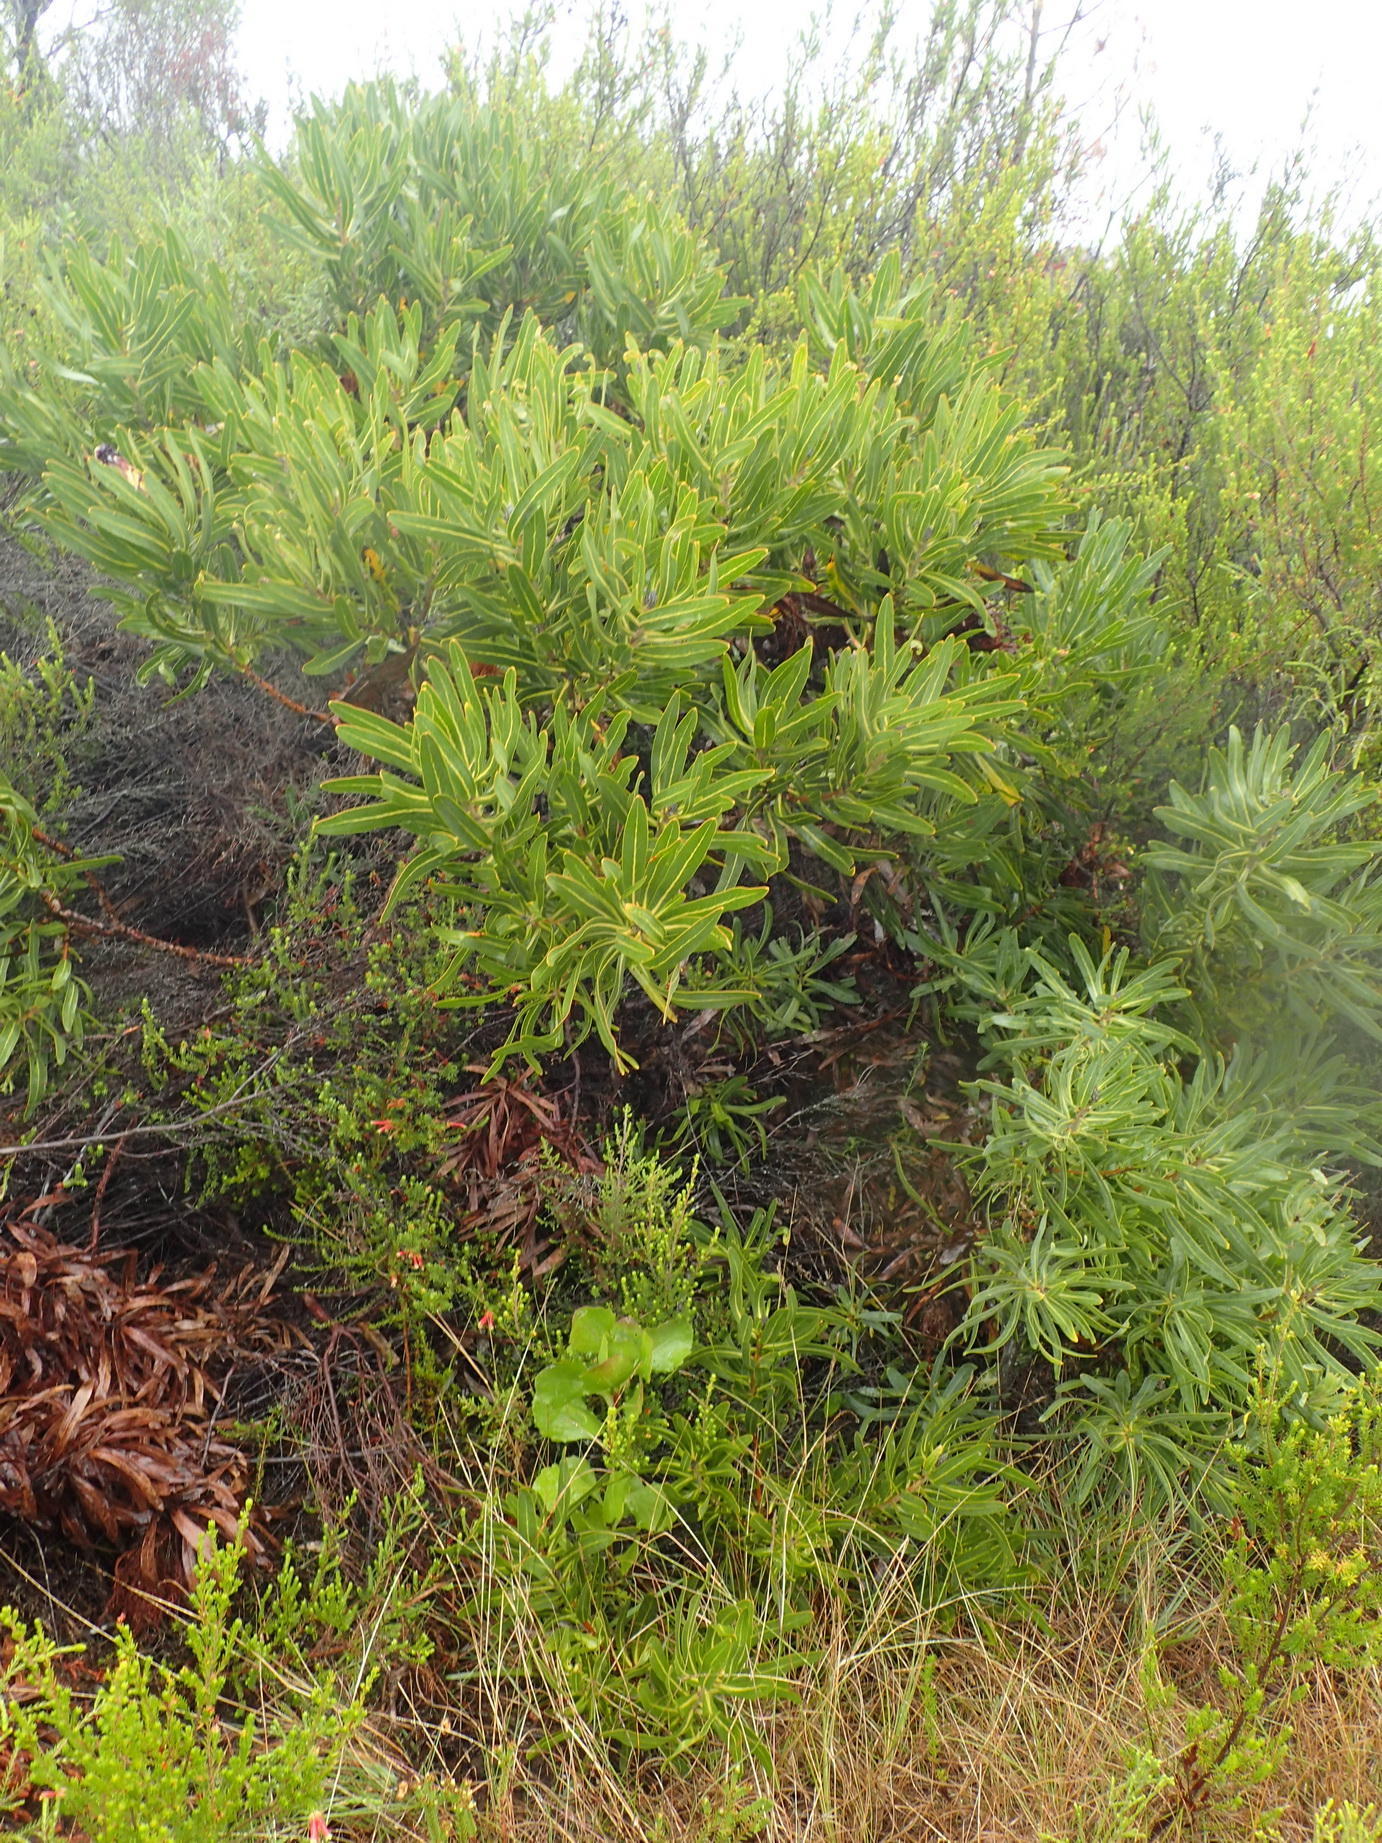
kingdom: Plantae
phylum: Tracheophyta
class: Magnoliopsida
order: Proteales
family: Proteaceae
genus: Protea
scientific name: Protea neriifolia
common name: Blue sugarbush
